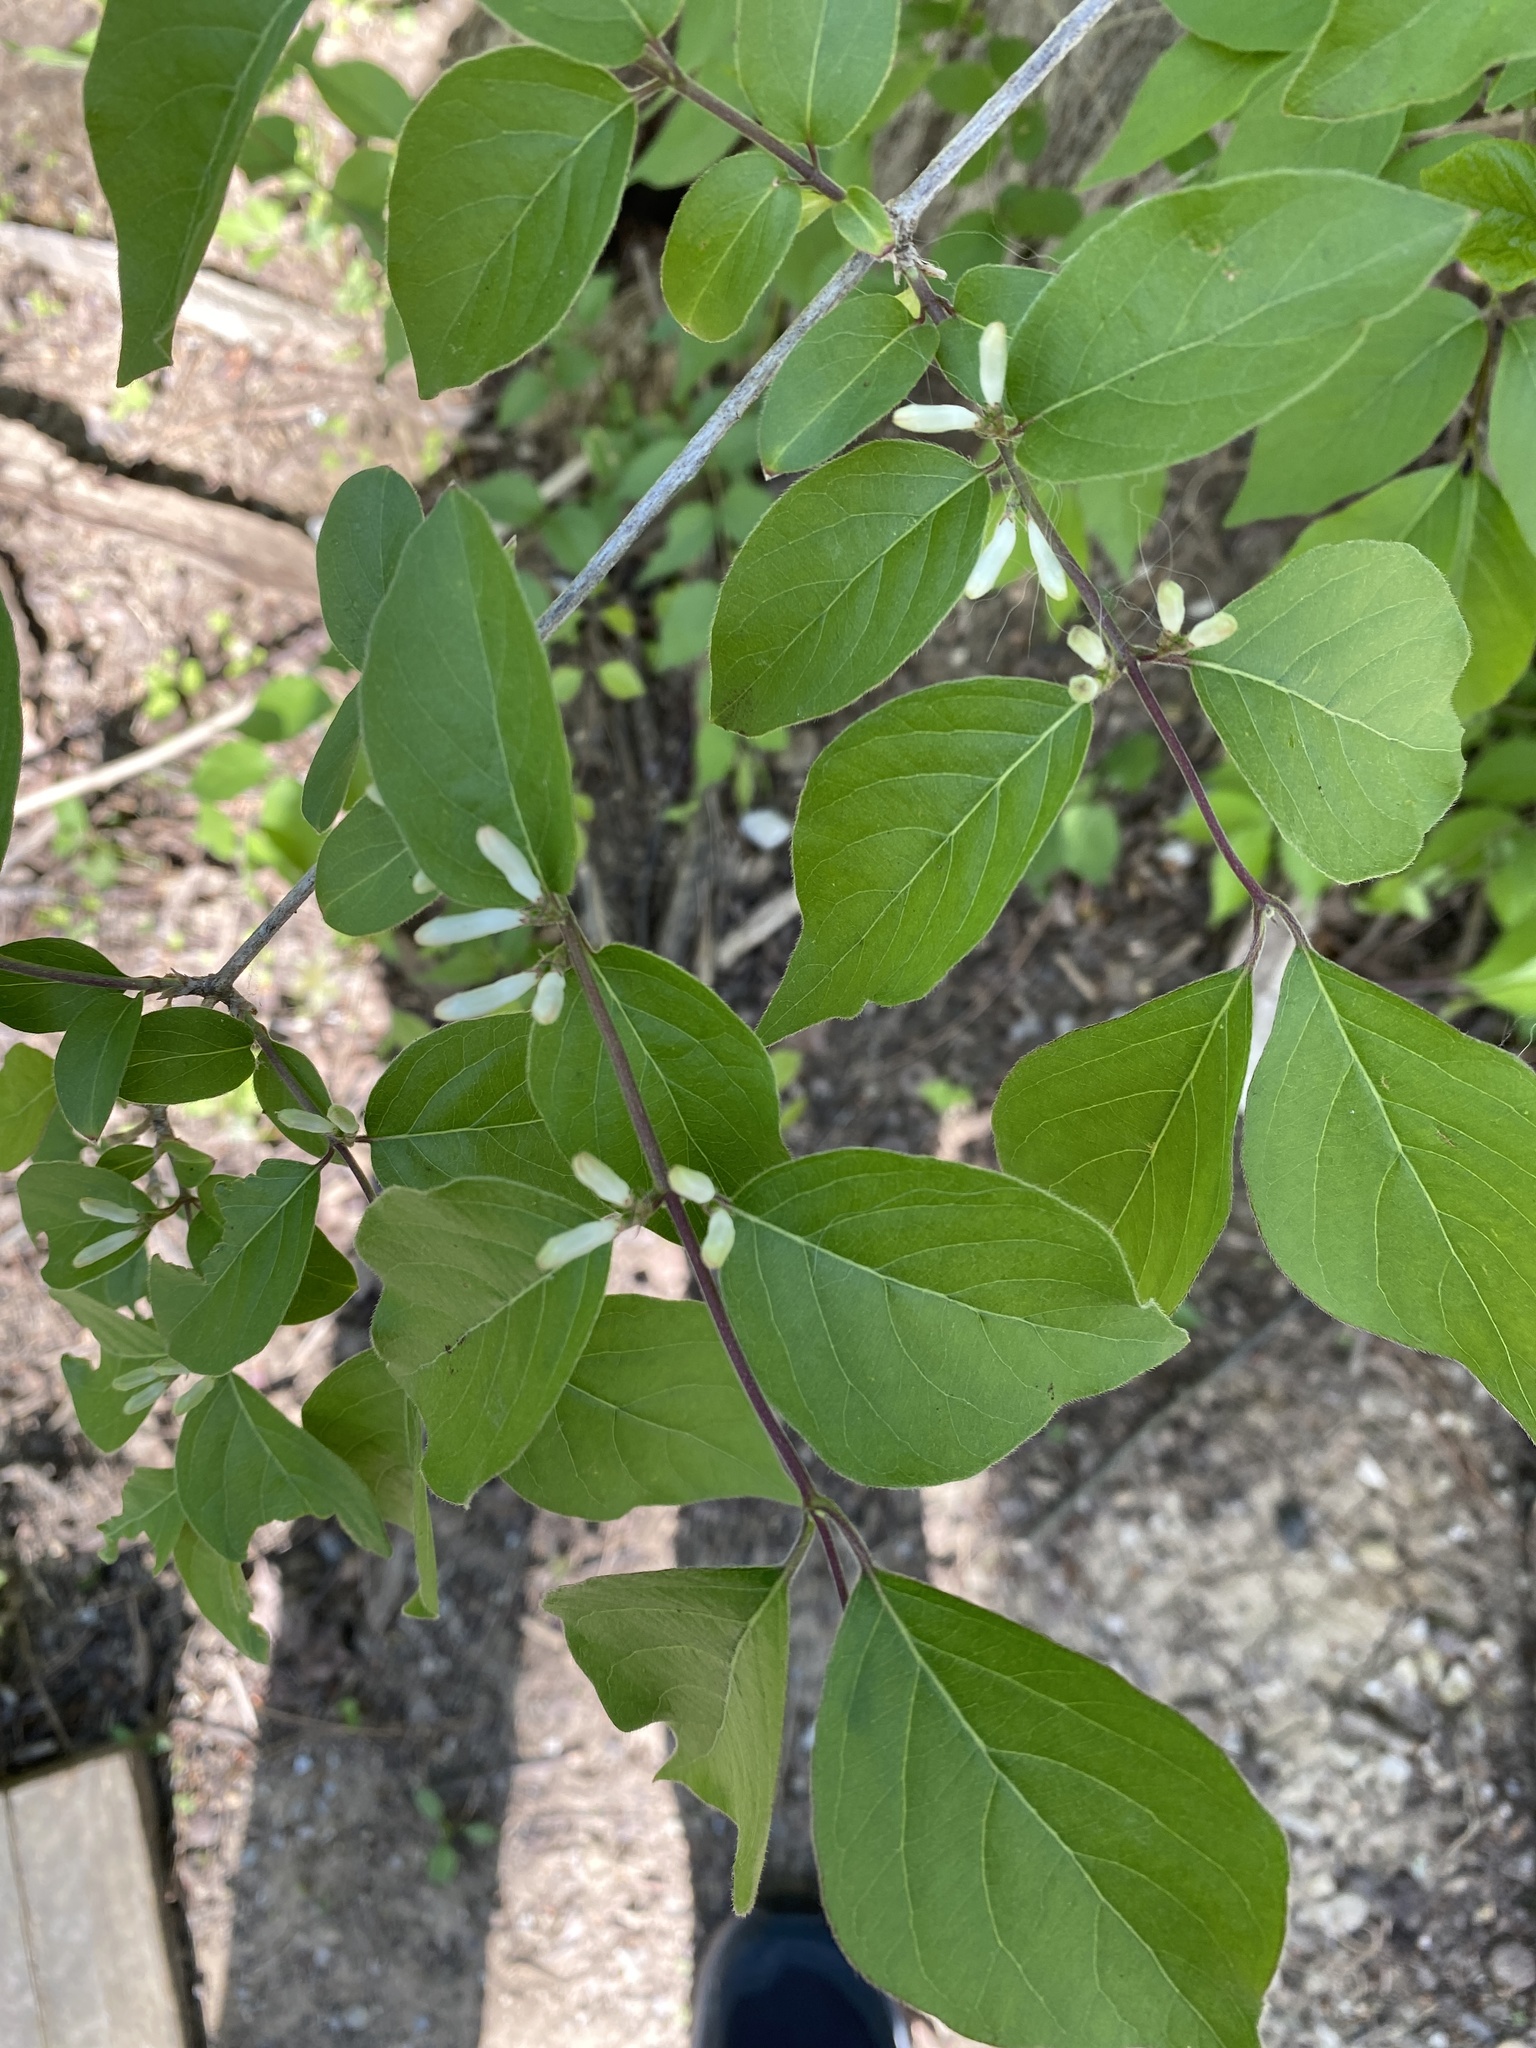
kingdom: Plantae
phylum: Tracheophyta
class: Magnoliopsida
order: Dipsacales
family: Caprifoliaceae
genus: Lonicera
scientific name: Lonicera maackii
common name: Amur honeysuckle
